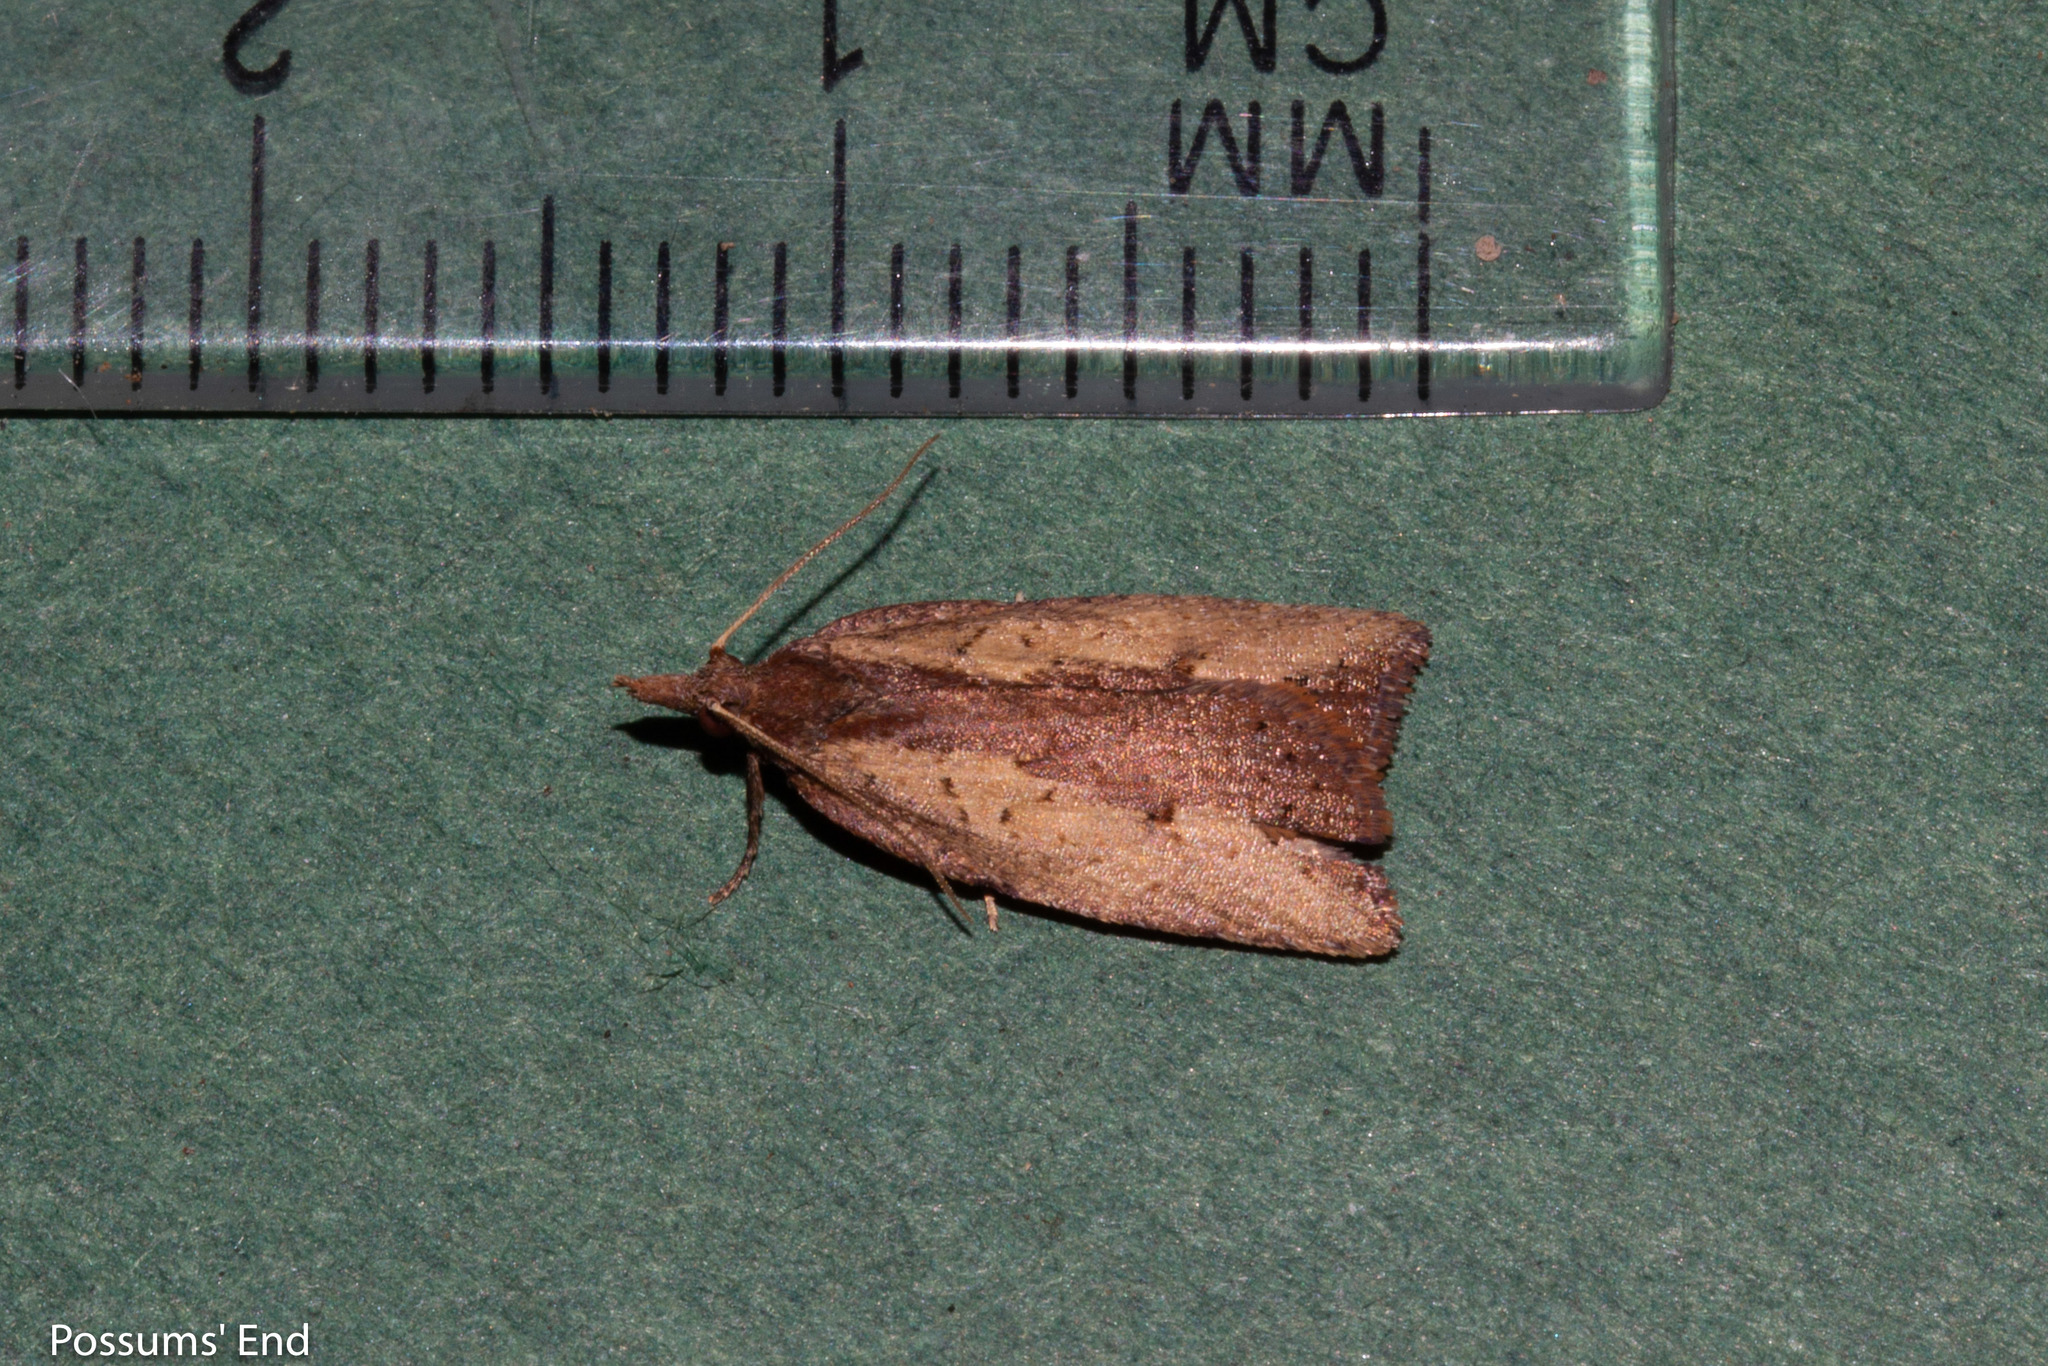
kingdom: Animalia
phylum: Arthropoda
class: Insecta
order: Lepidoptera
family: Tortricidae
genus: Planotortrix
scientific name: Planotortrix notophaea
